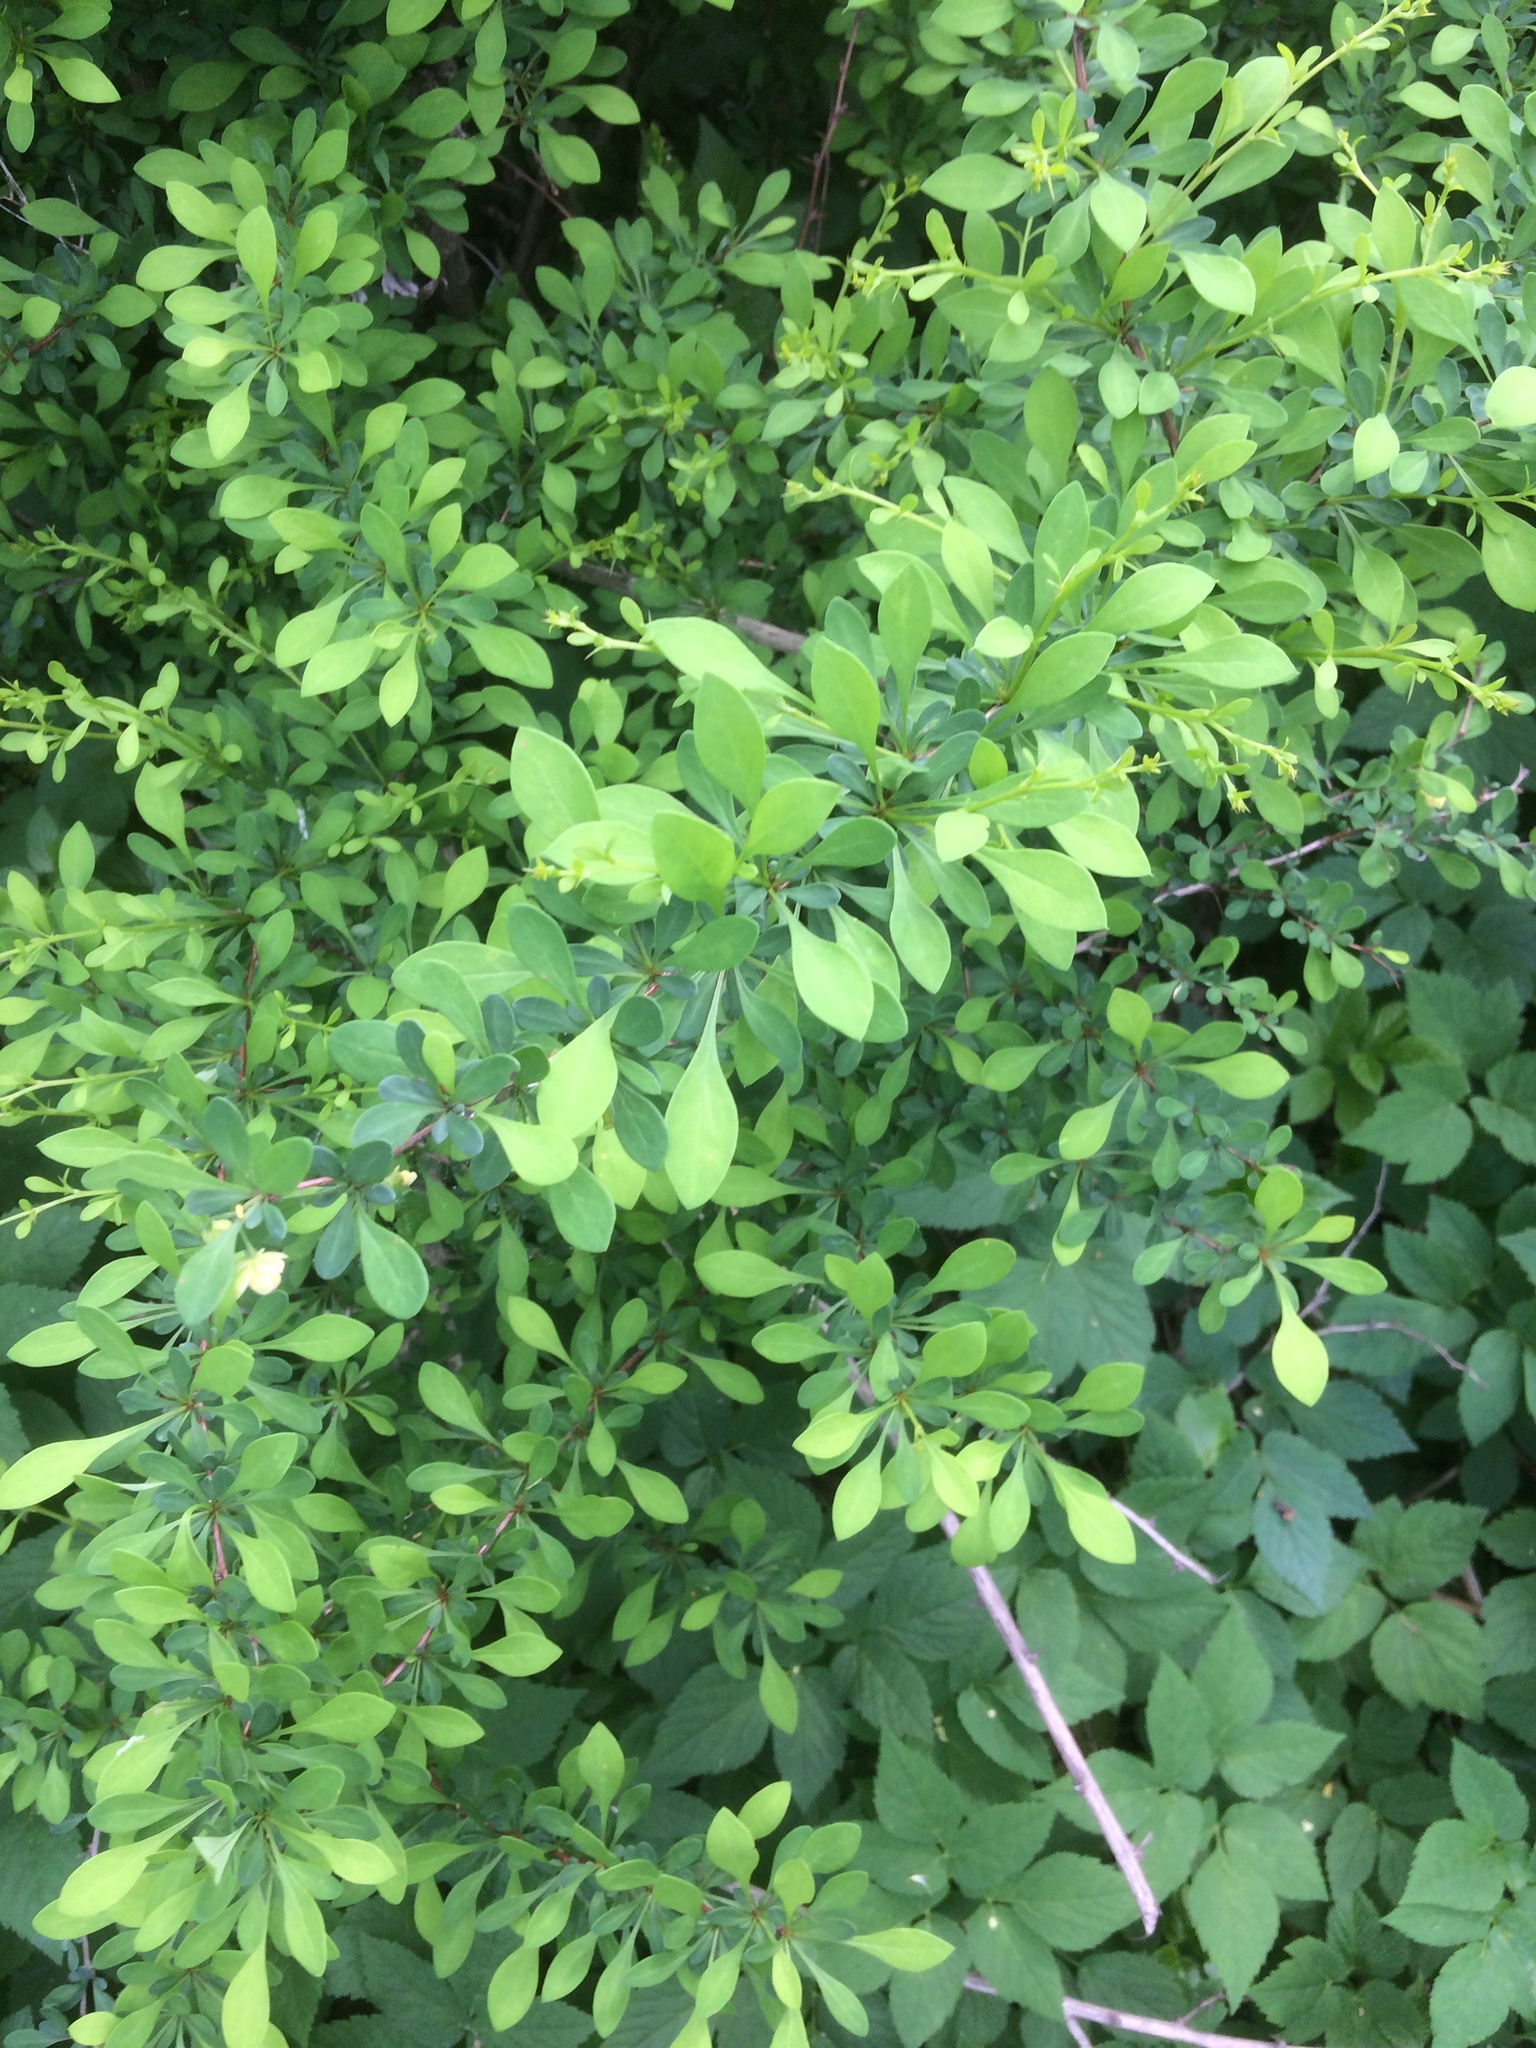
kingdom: Plantae
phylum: Tracheophyta
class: Magnoliopsida
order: Ranunculales
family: Berberidaceae
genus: Berberis
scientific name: Berberis thunbergii
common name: Japanese barberry
